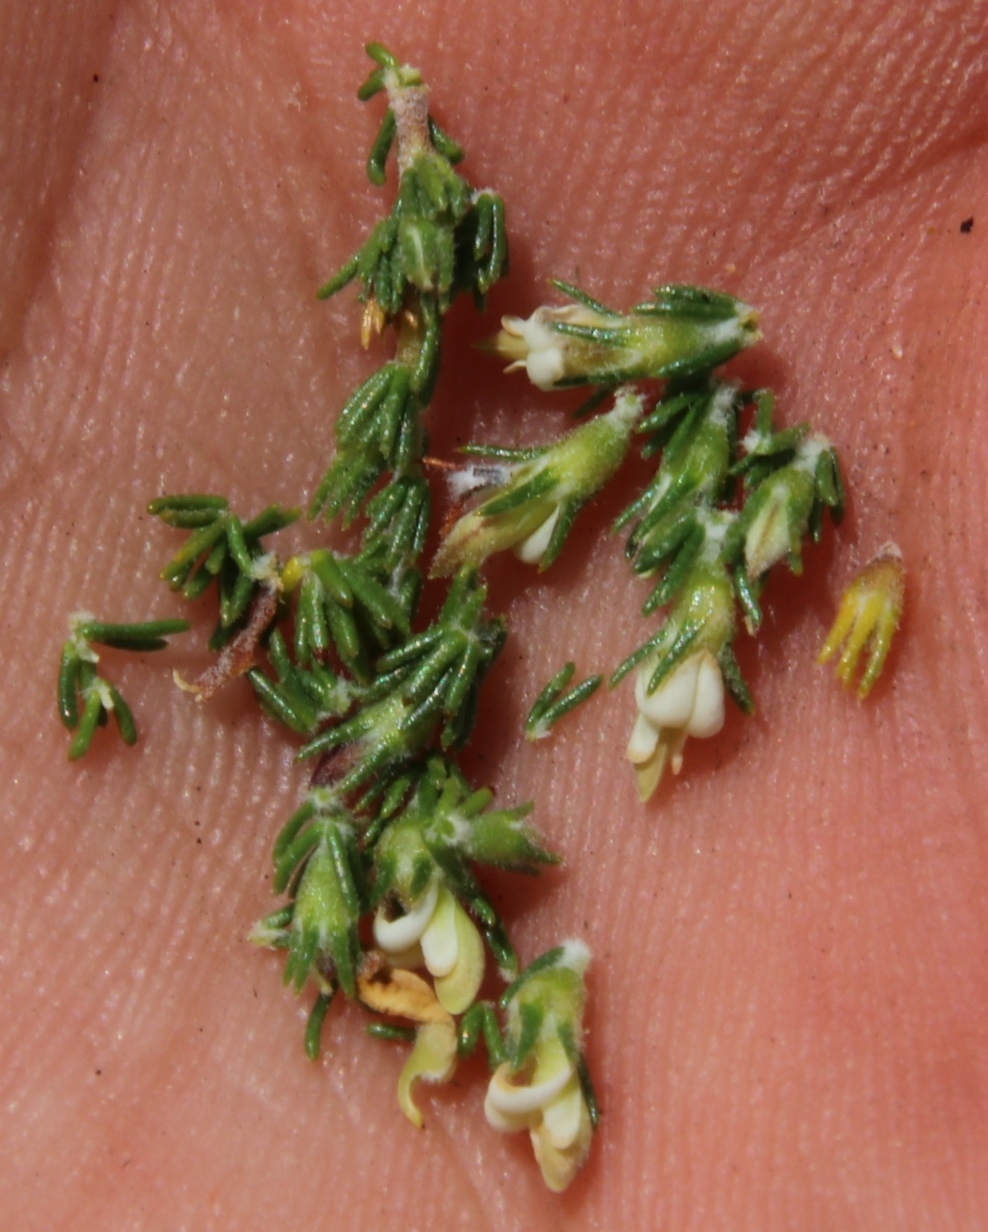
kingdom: Plantae
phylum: Tracheophyta
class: Magnoliopsida
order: Fabales
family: Fabaceae
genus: Aspalathus
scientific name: Aspalathus hispida
